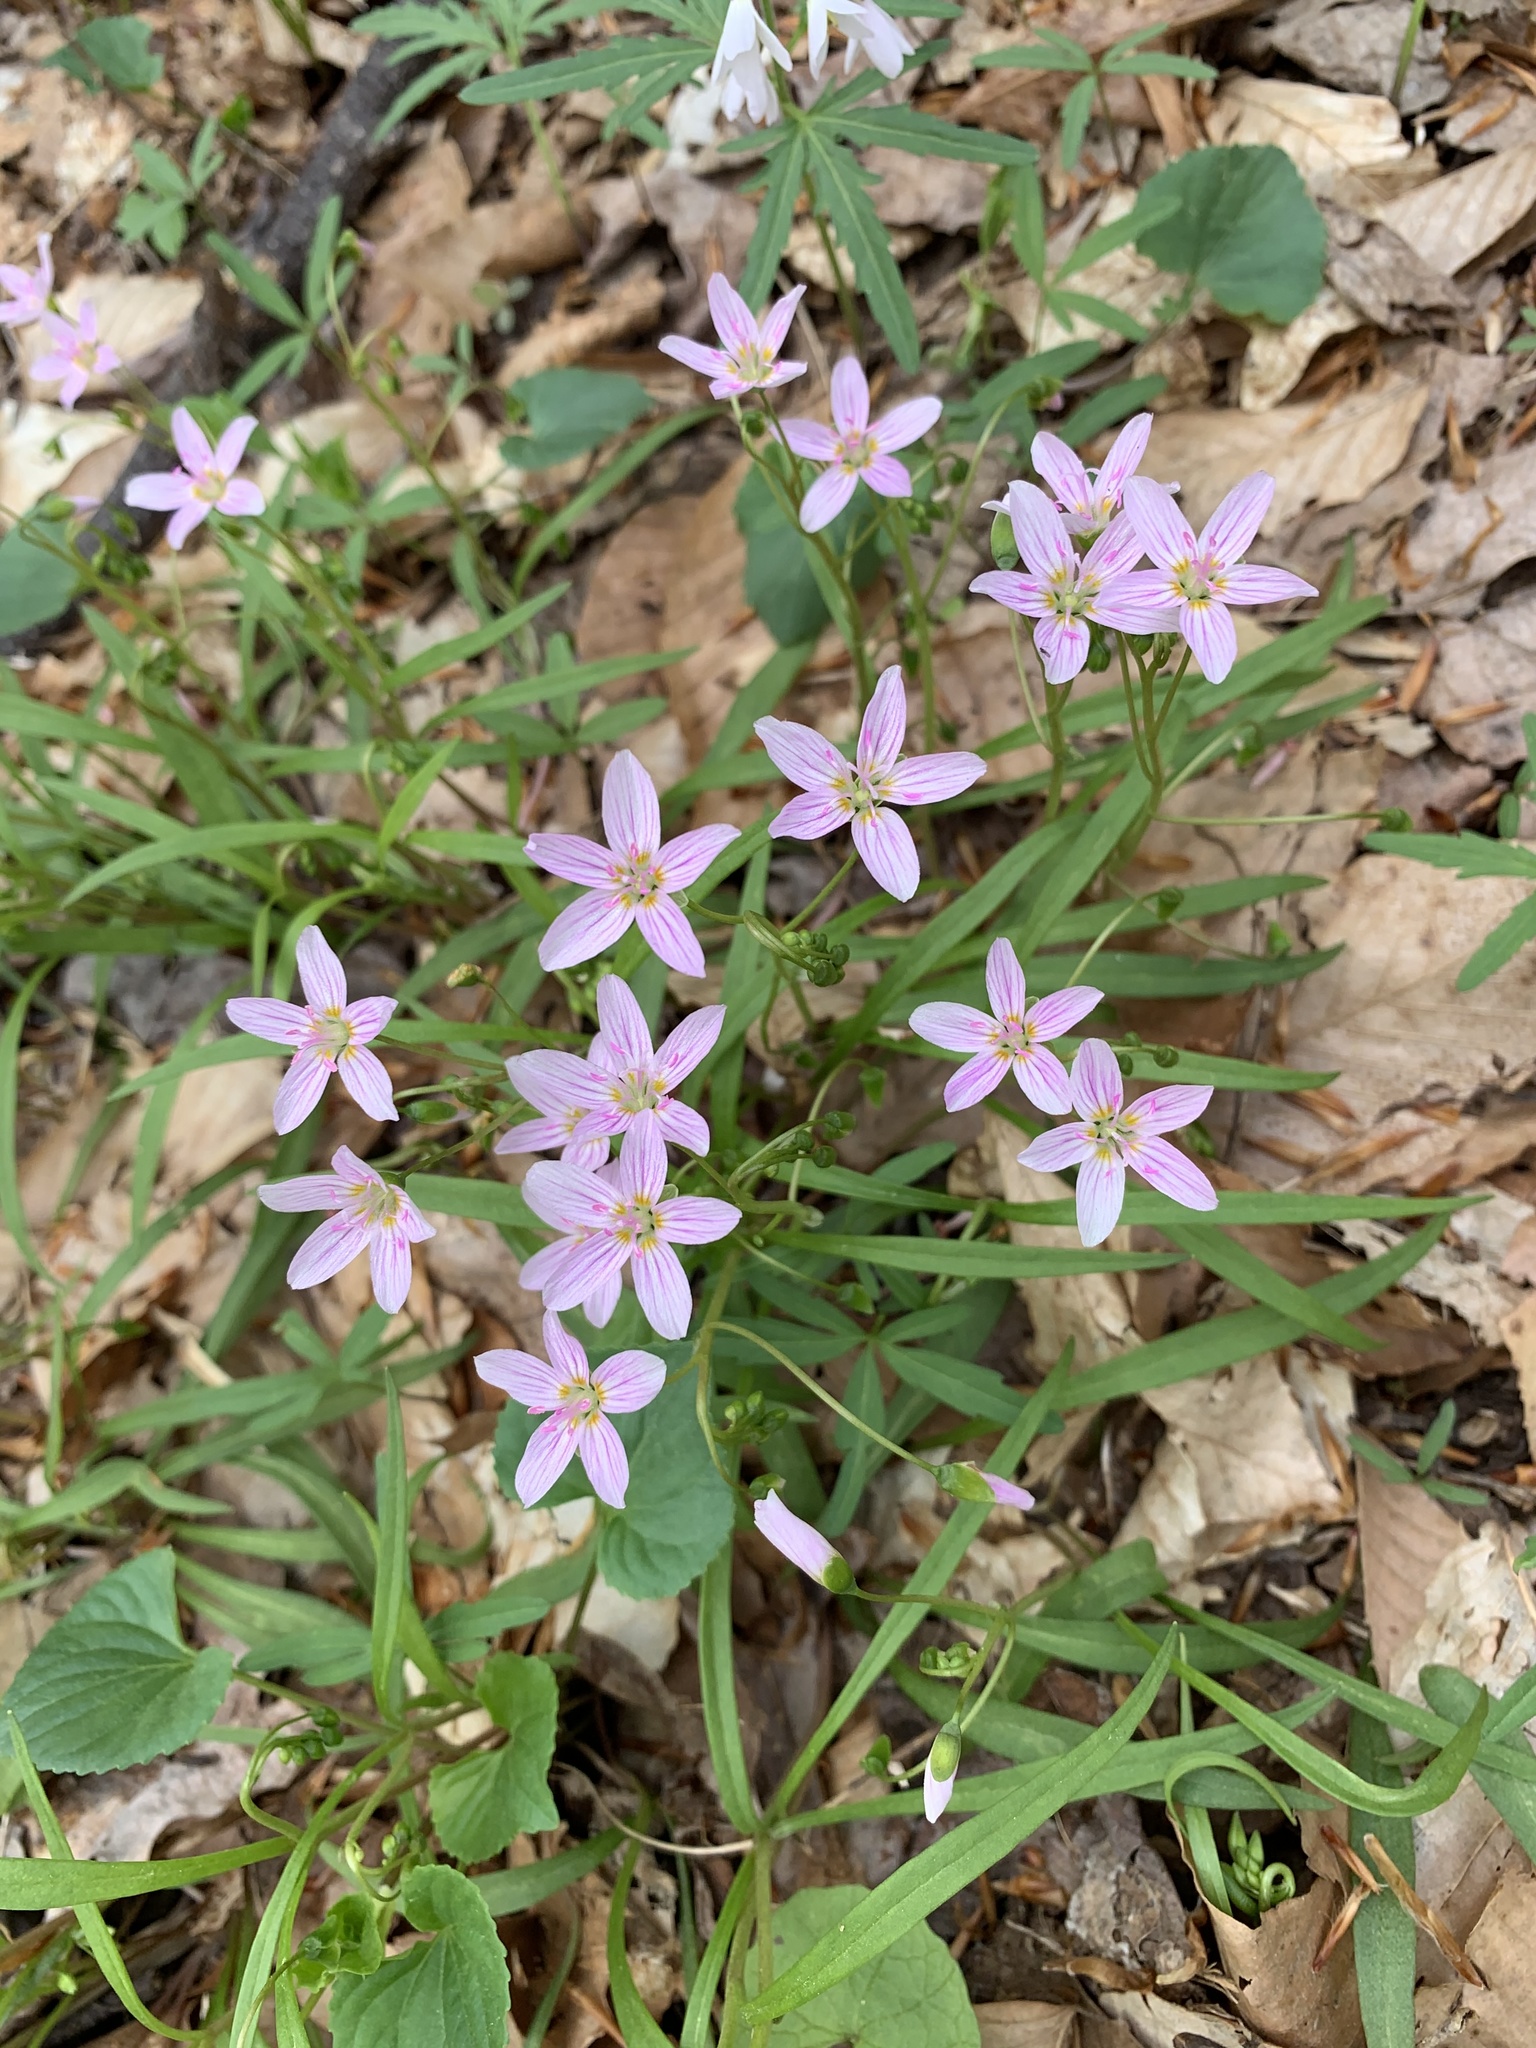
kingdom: Plantae
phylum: Tracheophyta
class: Magnoliopsida
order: Caryophyllales
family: Montiaceae
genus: Claytonia
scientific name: Claytonia virginica
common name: Virginia springbeauty
